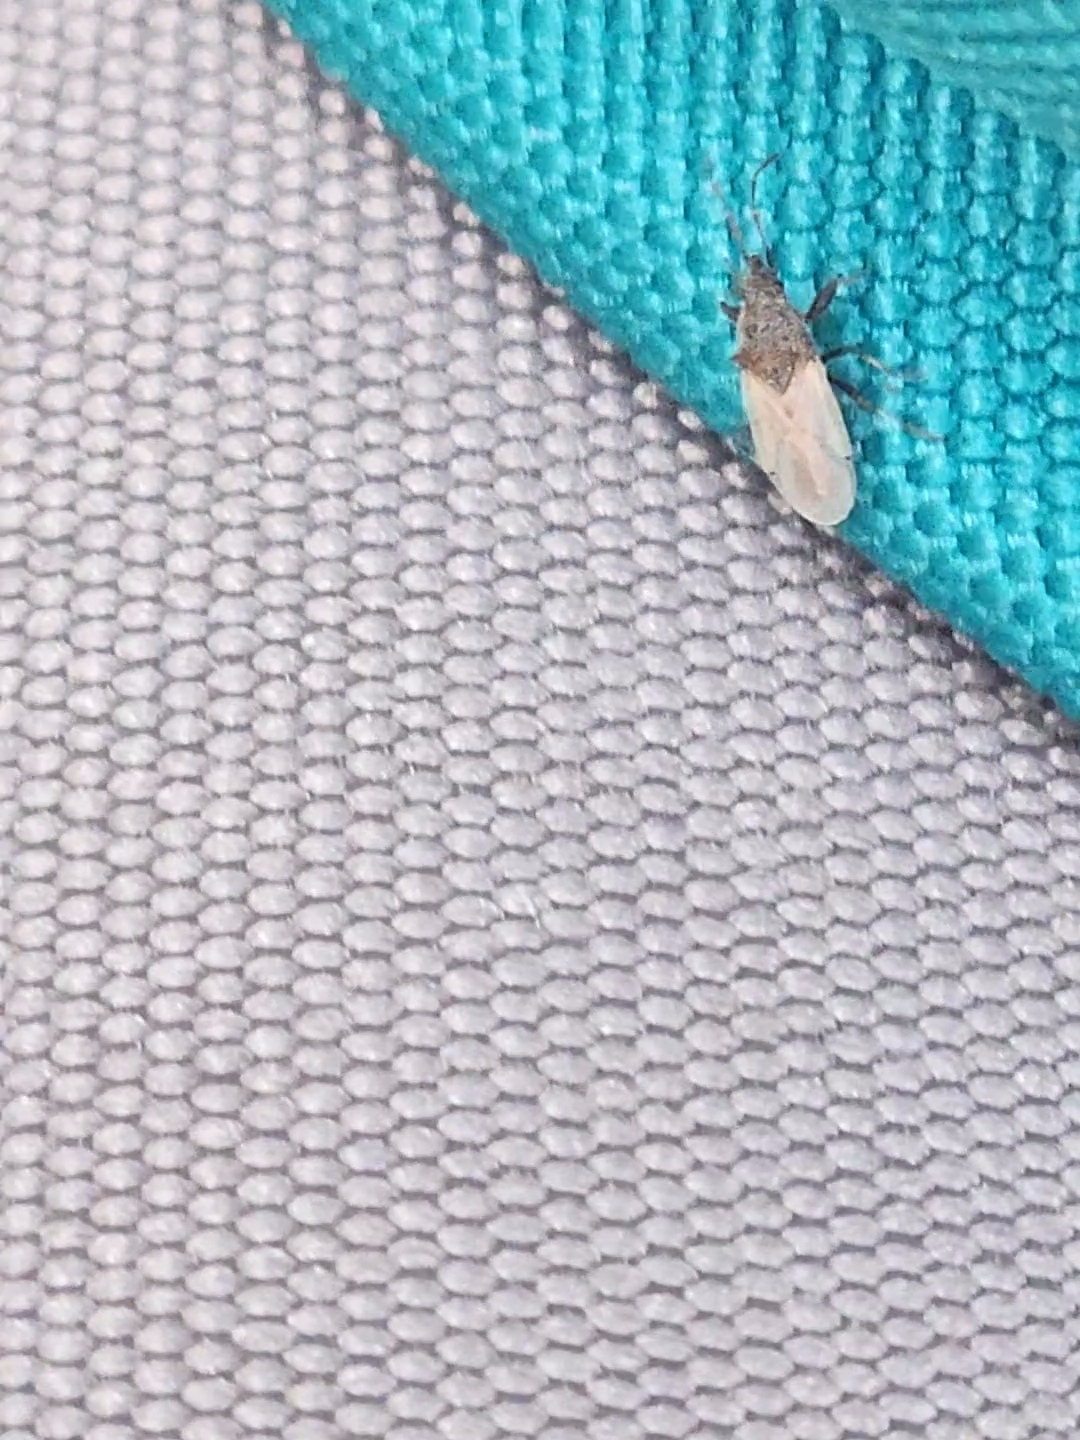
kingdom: Animalia
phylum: Arthropoda
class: Insecta
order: Hemiptera
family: Oxycarenidae
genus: Oxycarenus
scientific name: Oxycarenus hyalinipennis
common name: Cotton seed bug
